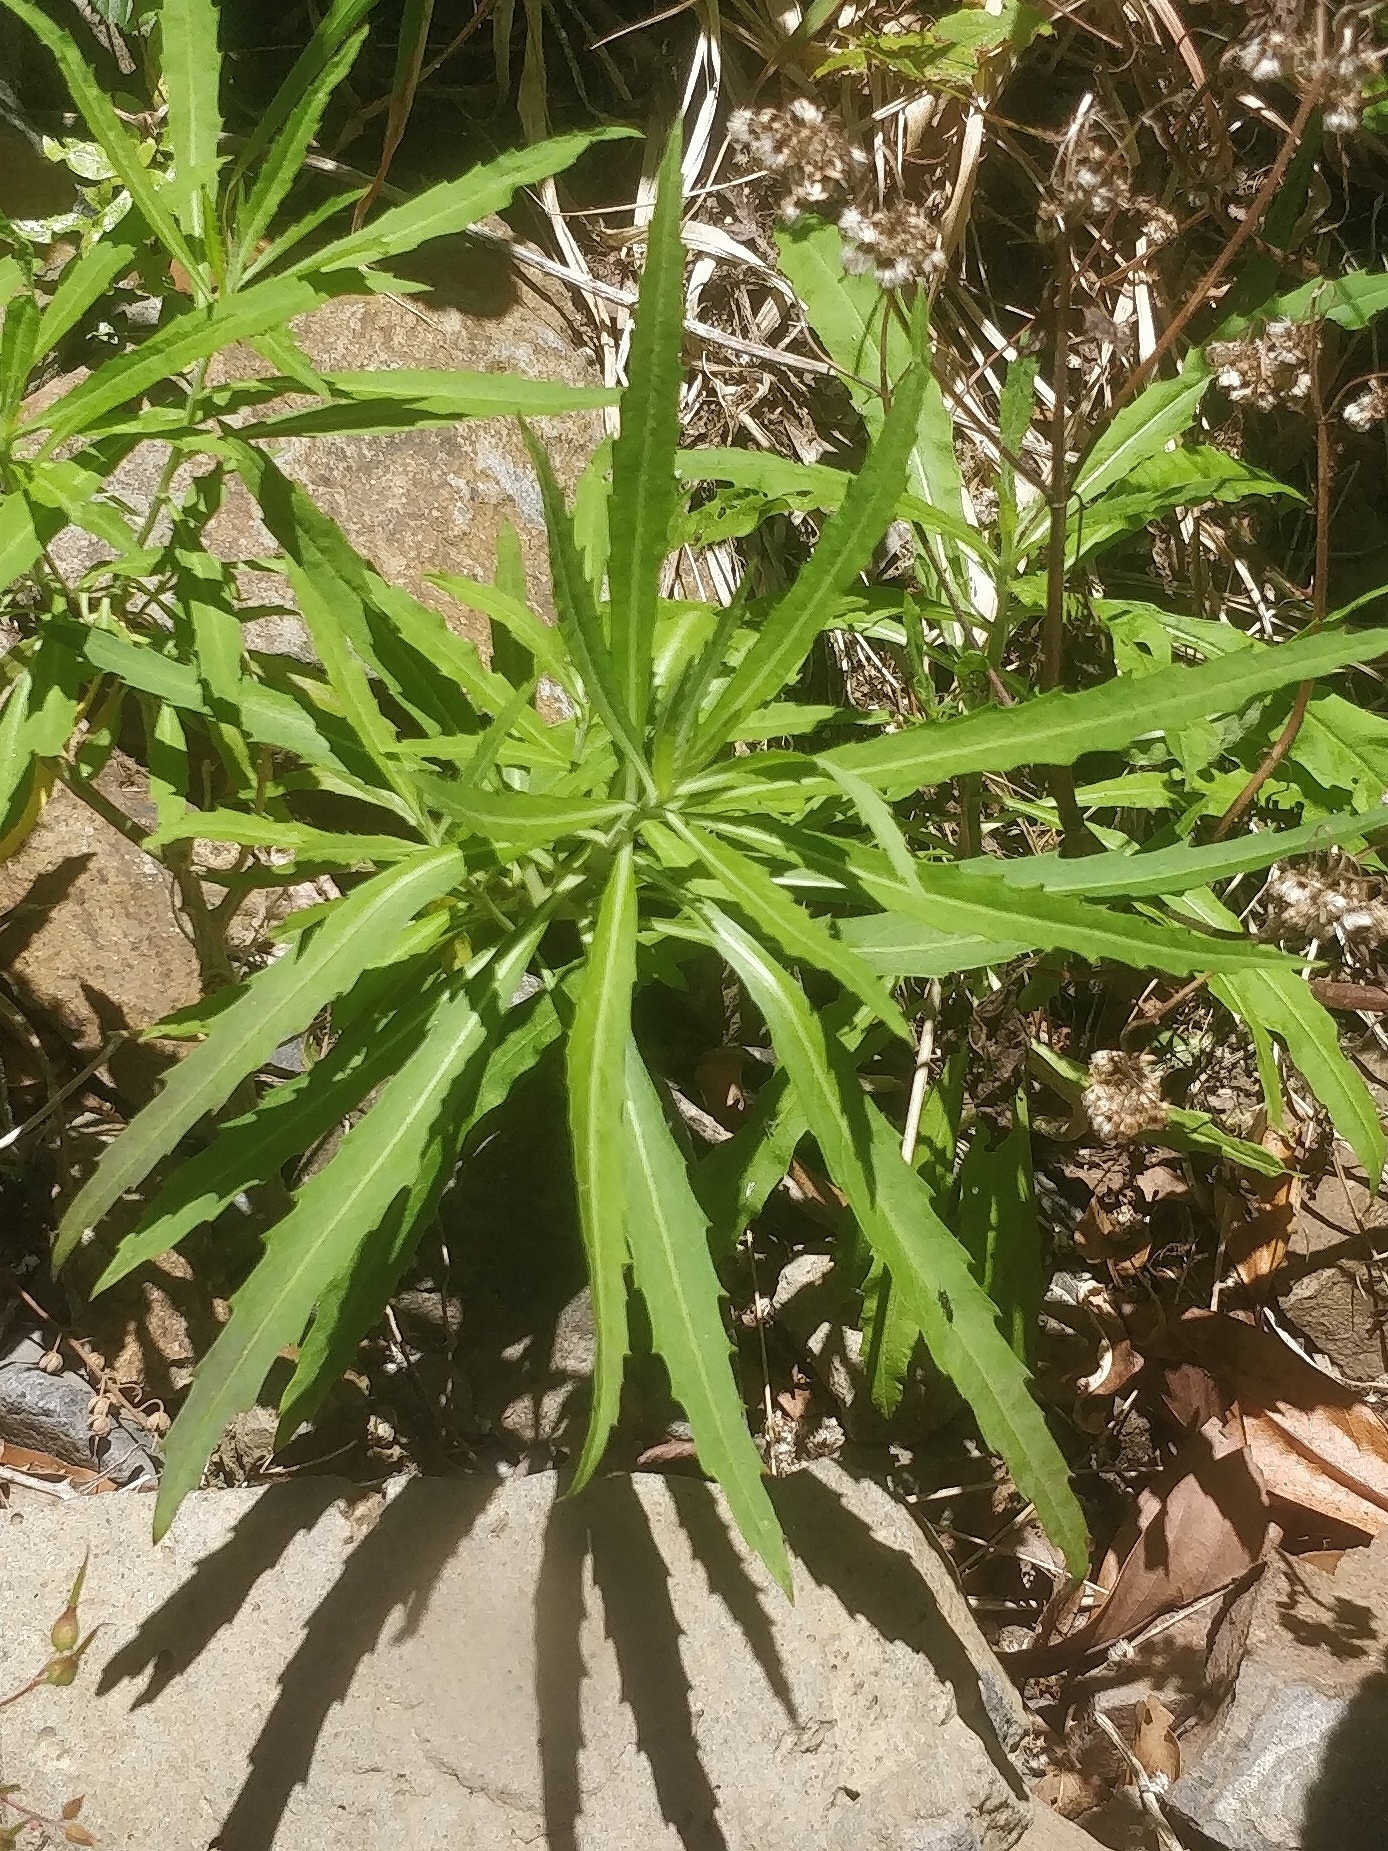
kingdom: Plantae
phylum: Tracheophyta
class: Magnoliopsida
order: Brassicales
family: Brassicaceae
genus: Erysimum
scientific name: Erysimum bicolor
